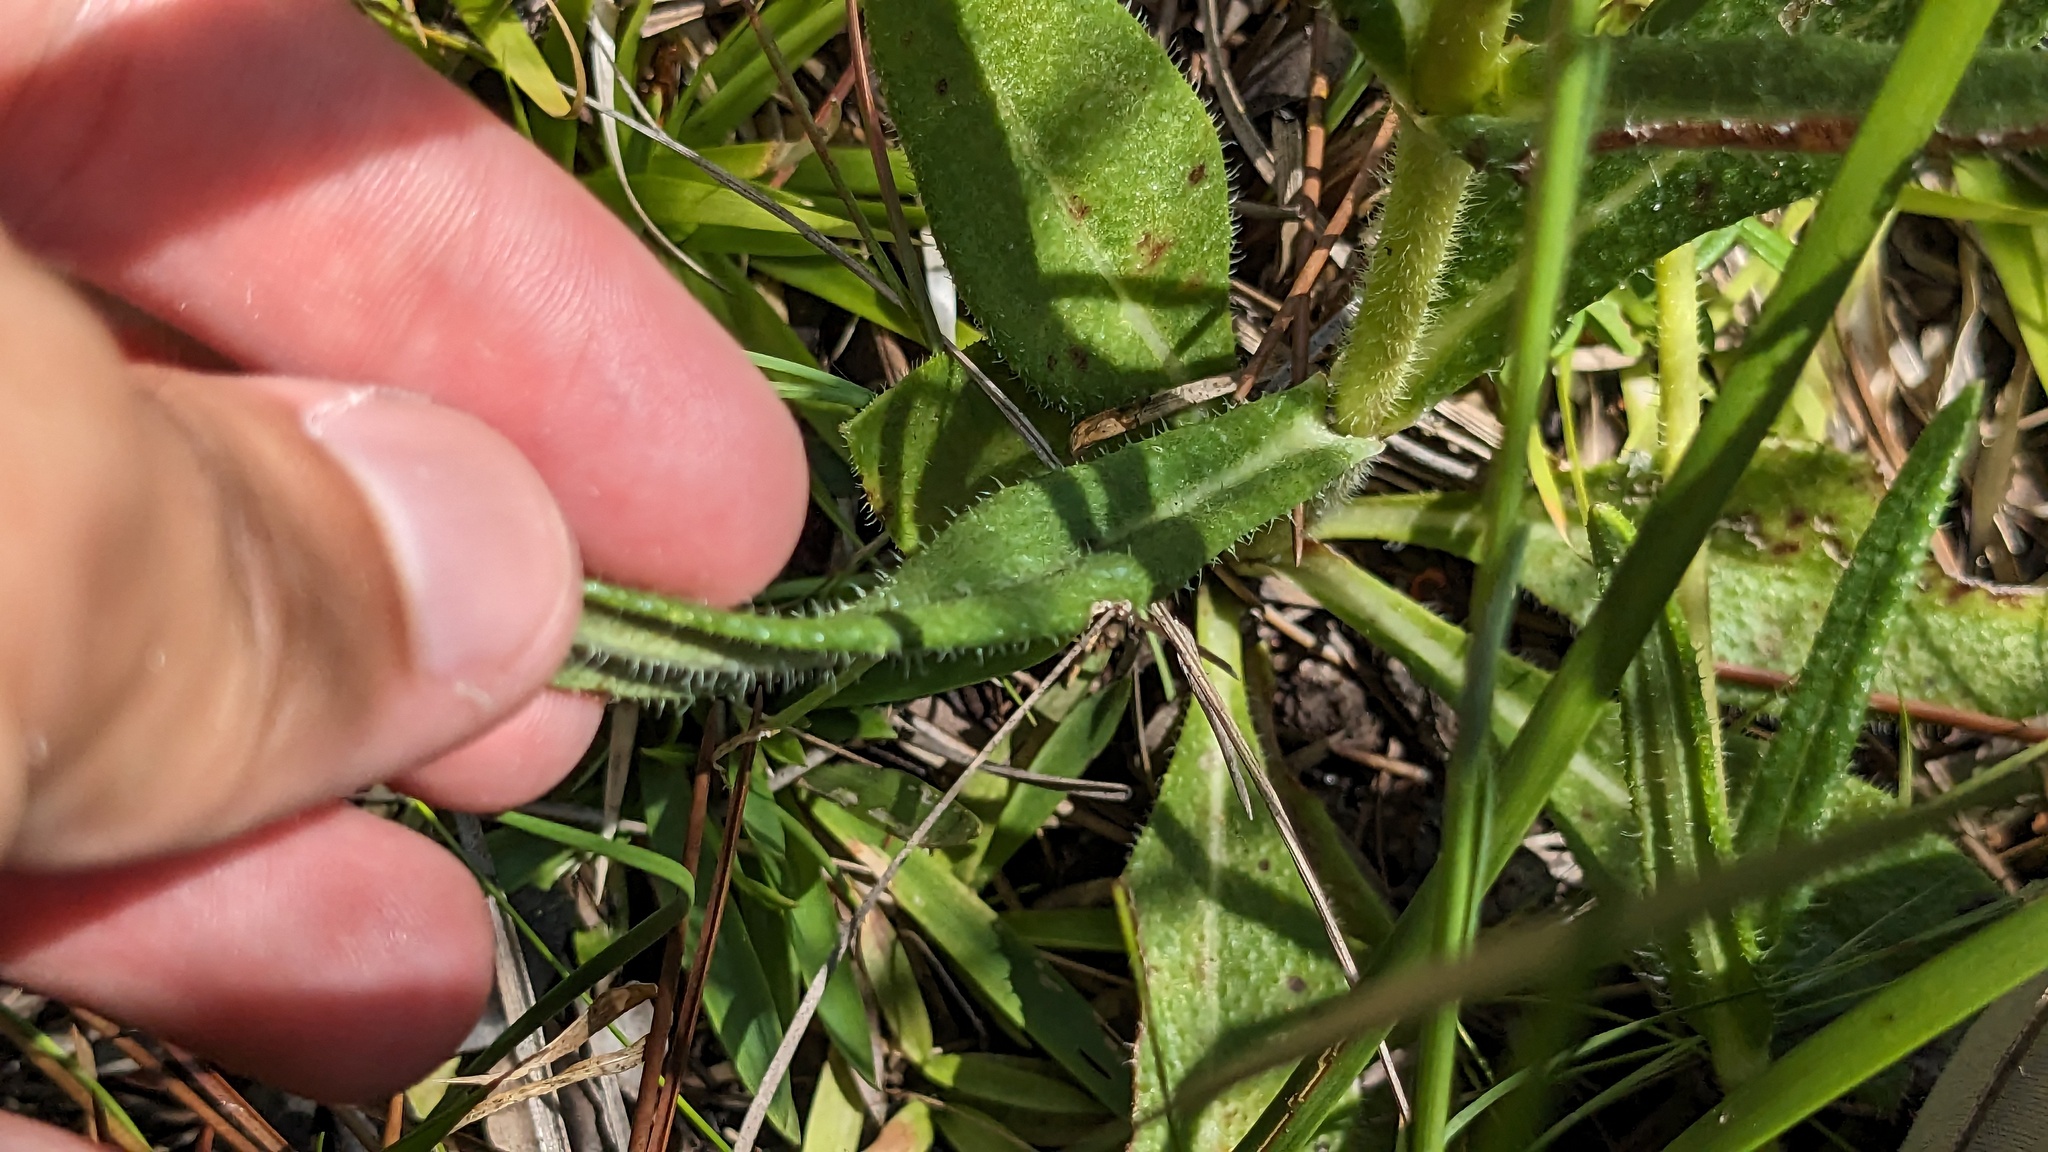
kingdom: Plantae
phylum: Tracheophyta
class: Magnoliopsida
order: Asterales
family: Asteraceae
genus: Helianthus
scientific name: Helianthus heterophyllus
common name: Wetland sunflower
